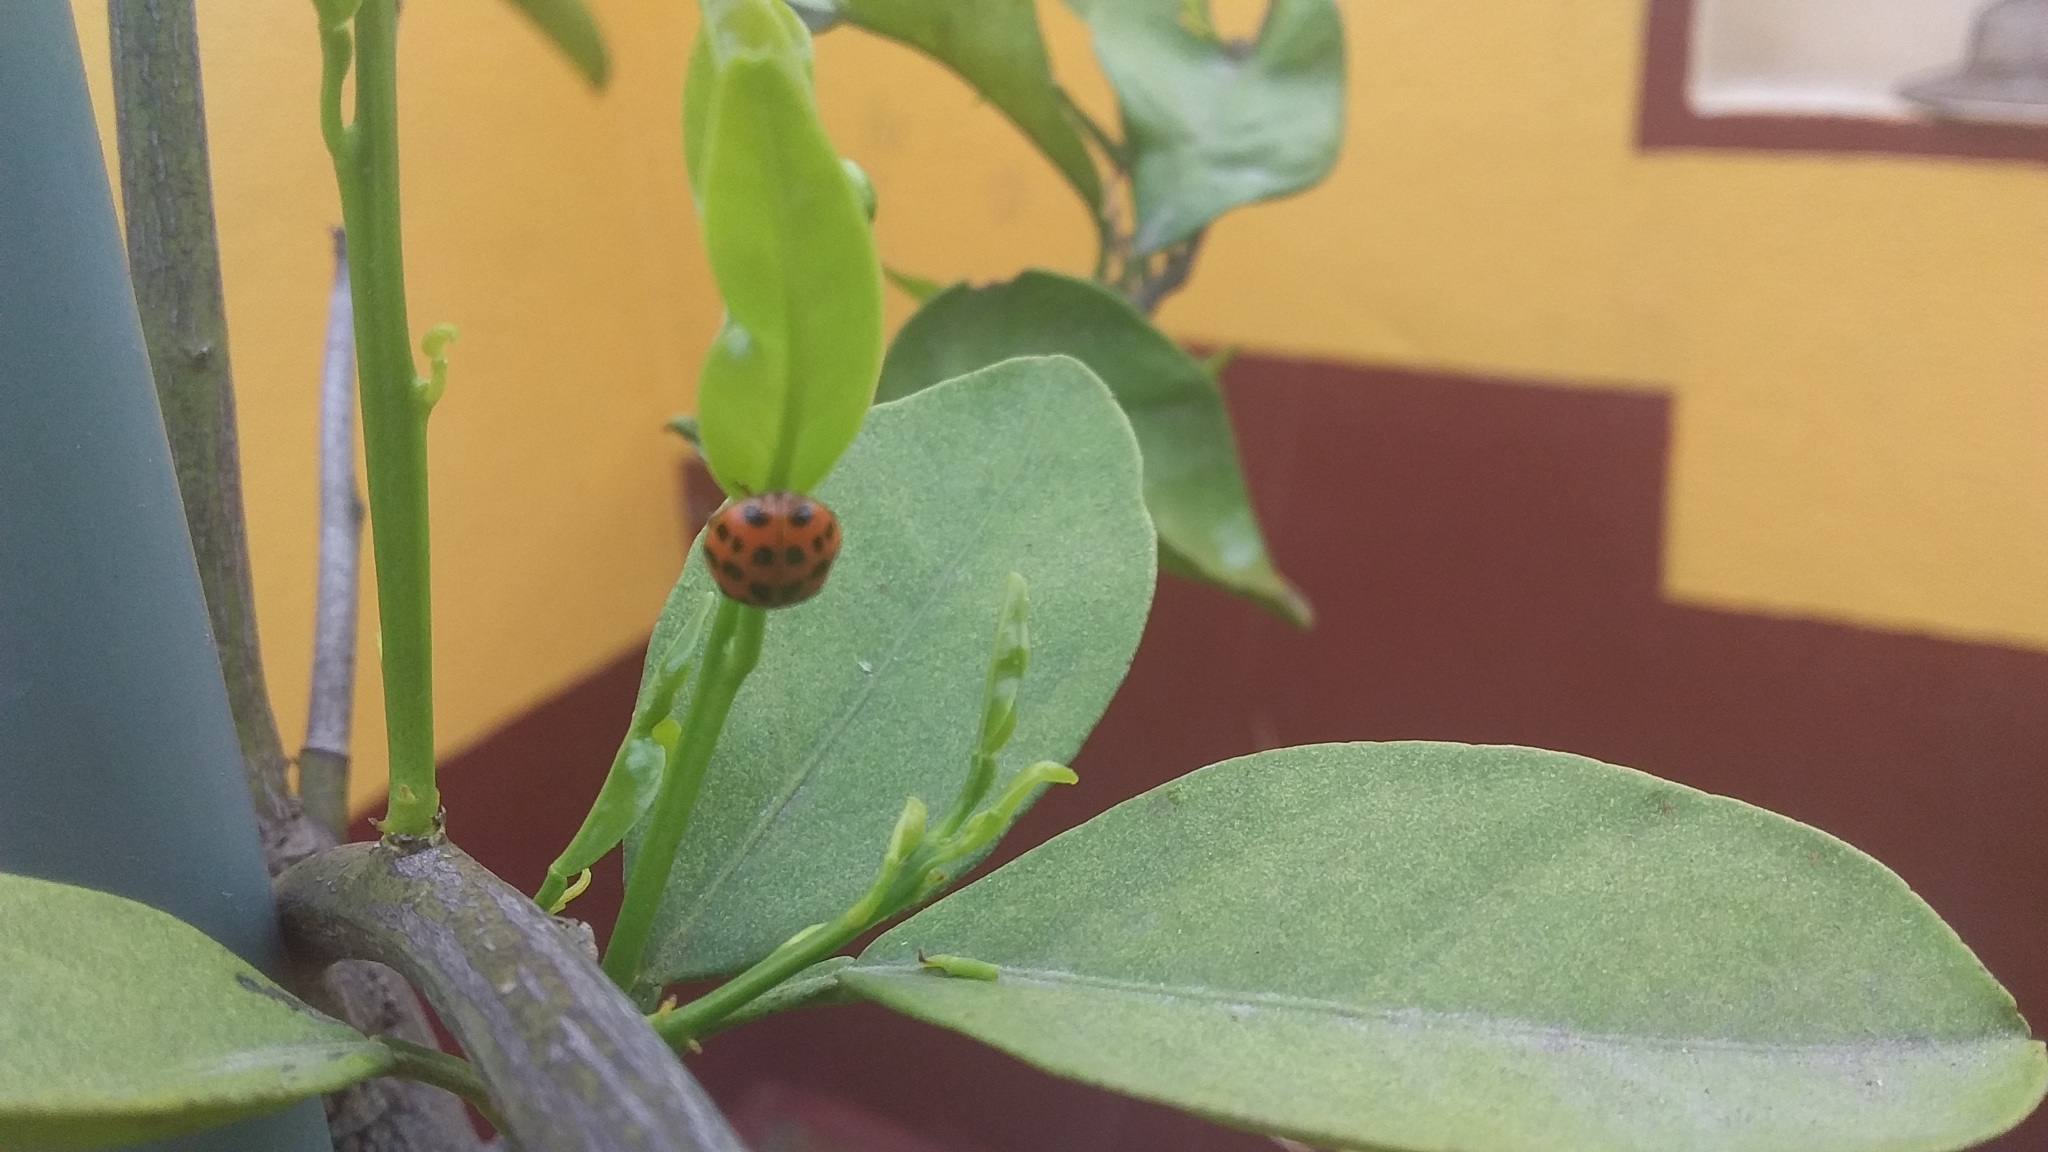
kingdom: Animalia
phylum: Arthropoda
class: Insecta
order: Coleoptera
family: Coccinellidae
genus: Harmonia
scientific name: Harmonia axyridis
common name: Harlequin ladybird
